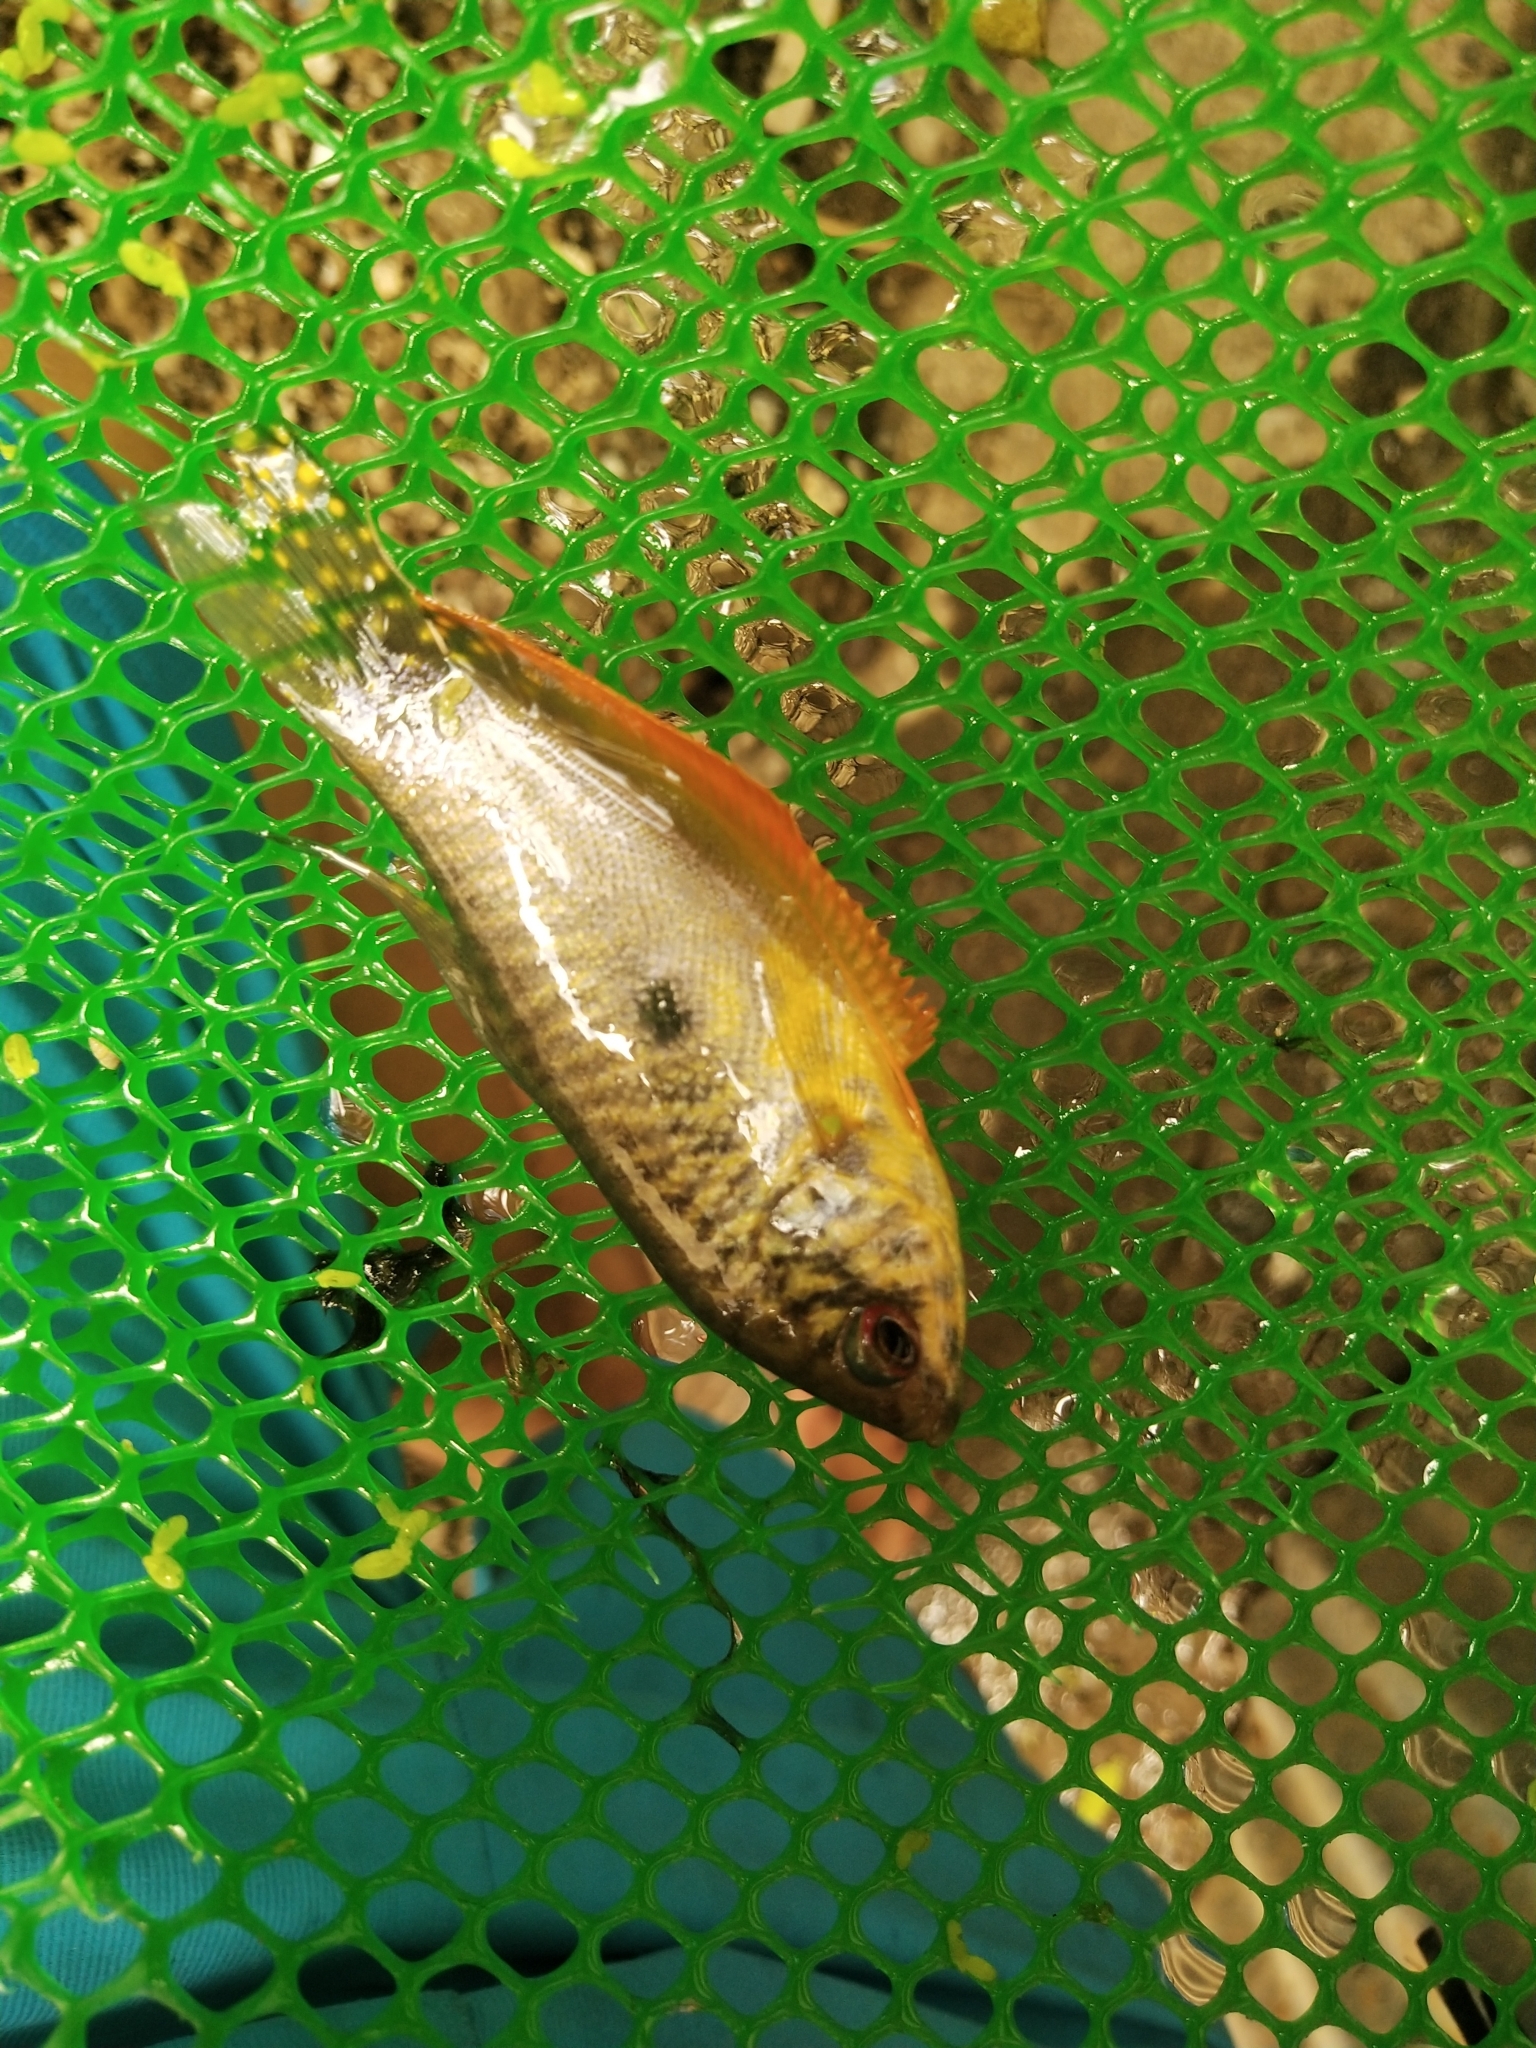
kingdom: Animalia
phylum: Chordata
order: Perciformes
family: Osphronemidae
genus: Trichopodus
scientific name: Trichopodus trichopterus
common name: Blue gourami
